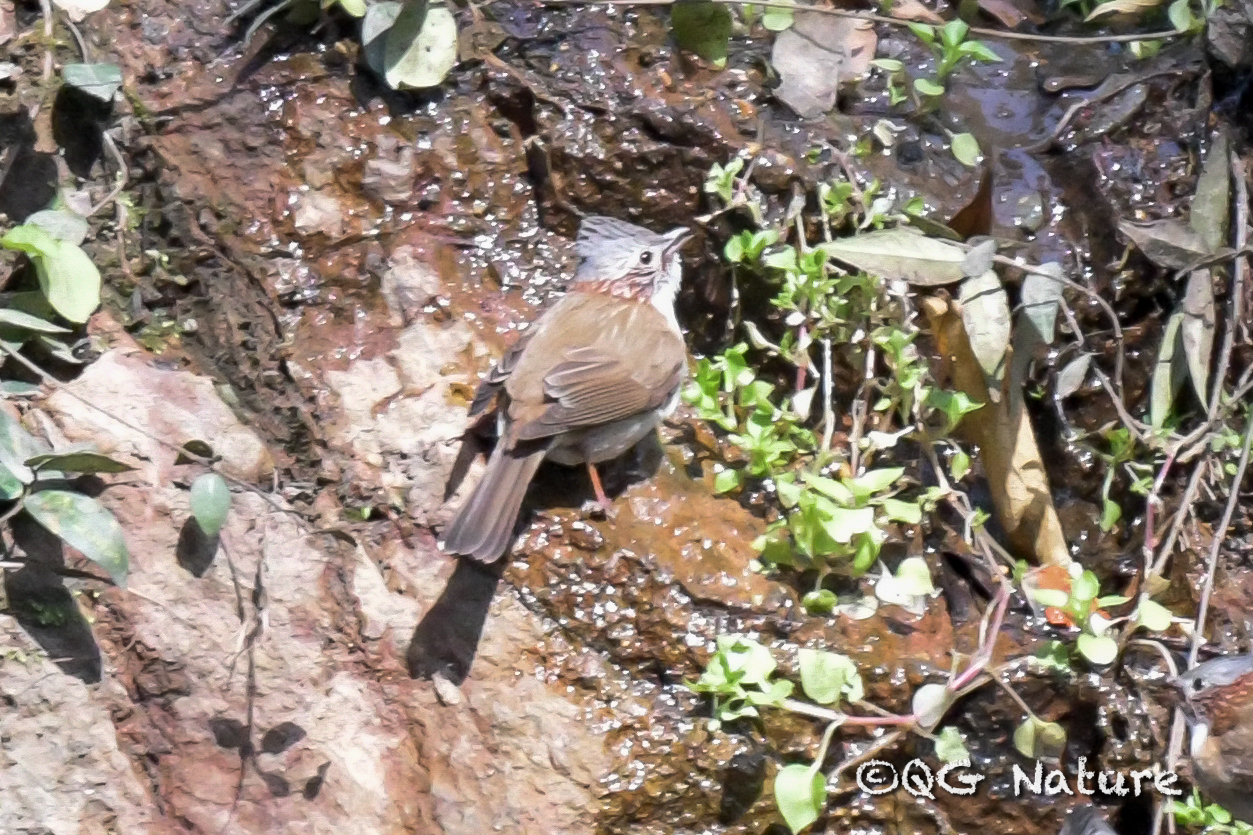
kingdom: Animalia
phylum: Chordata
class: Aves
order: Passeriformes
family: Zosteropidae
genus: Yuhina
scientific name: Yuhina torqueola
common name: Indochinese yuhina
